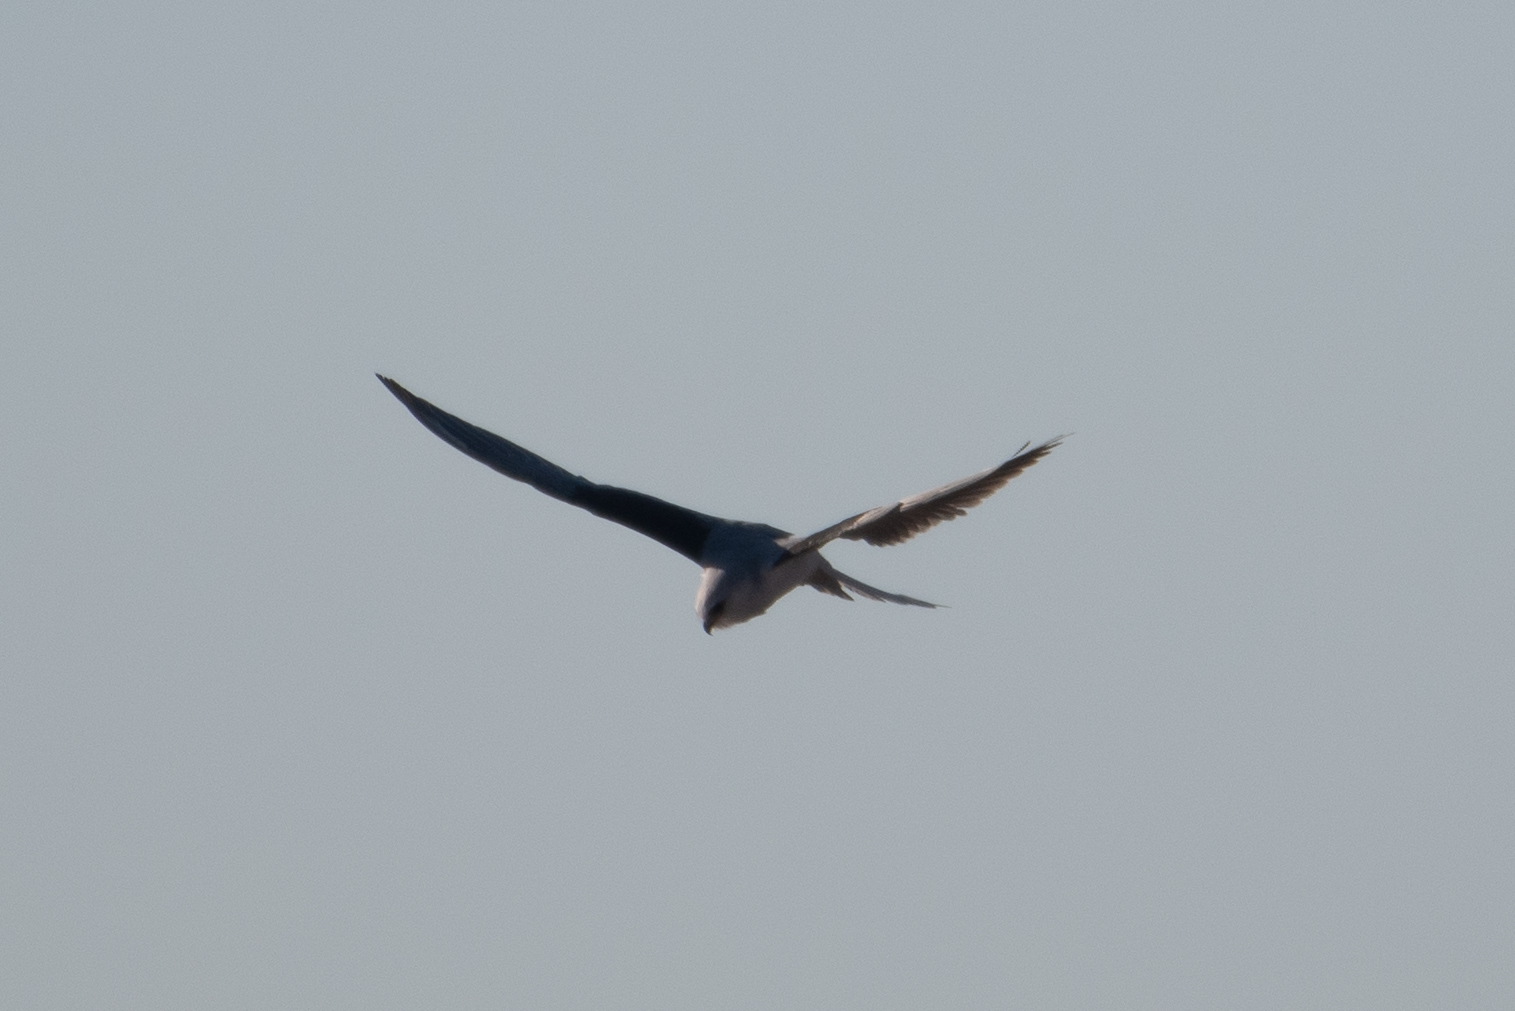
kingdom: Animalia
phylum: Chordata
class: Aves
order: Accipitriformes
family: Accipitridae
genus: Elanus
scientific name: Elanus leucurus
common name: White-tailed kite
